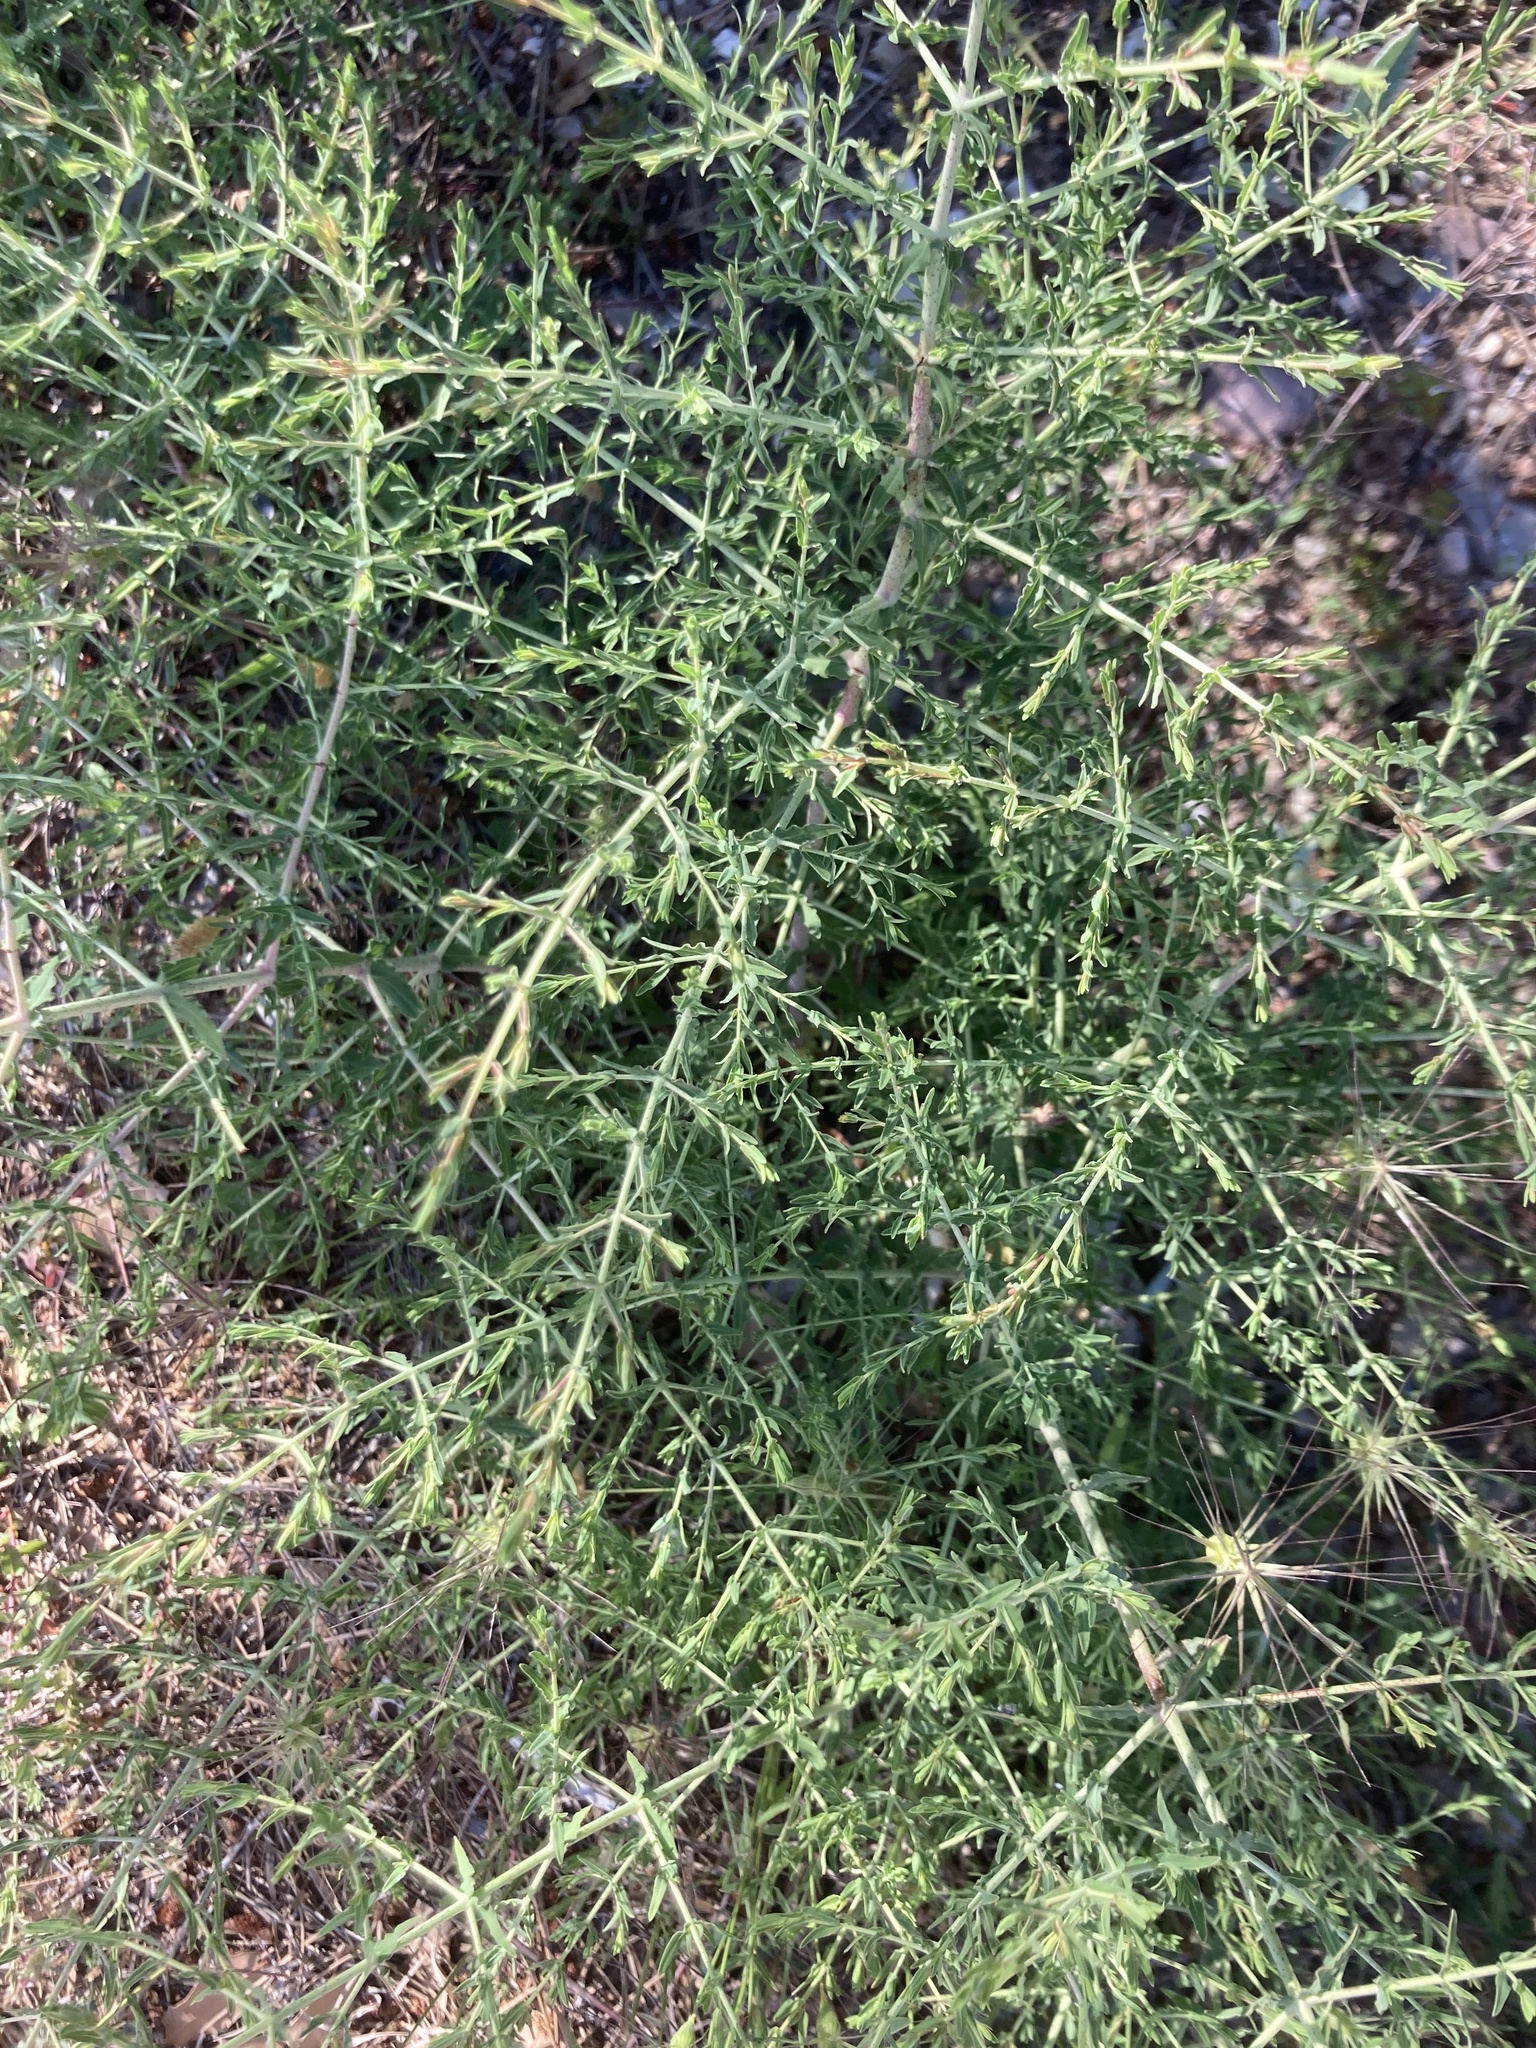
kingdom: Plantae
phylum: Tracheophyta
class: Magnoliopsida
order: Malpighiales
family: Hypericaceae
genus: Hypericum
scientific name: Hypericum triquetrifolium
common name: Tangled hypericum
